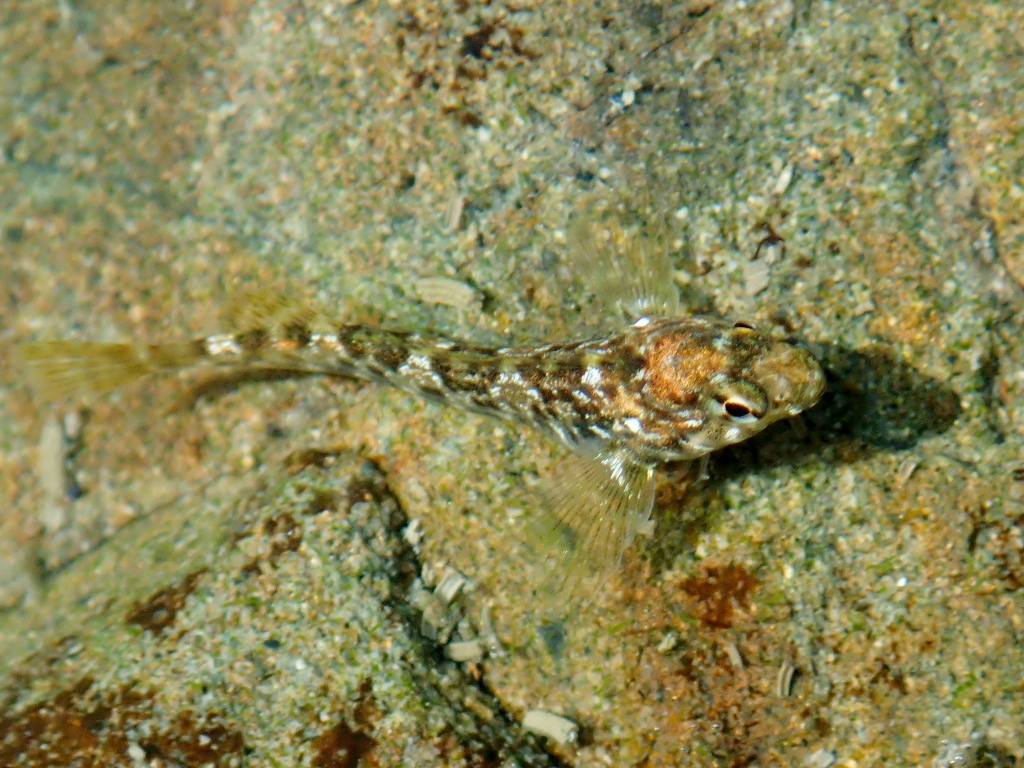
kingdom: Animalia
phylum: Chordata
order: Perciformes
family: Tripterygiidae
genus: Bellapiscis
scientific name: Bellapiscis lesleyae
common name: Mottled twister
